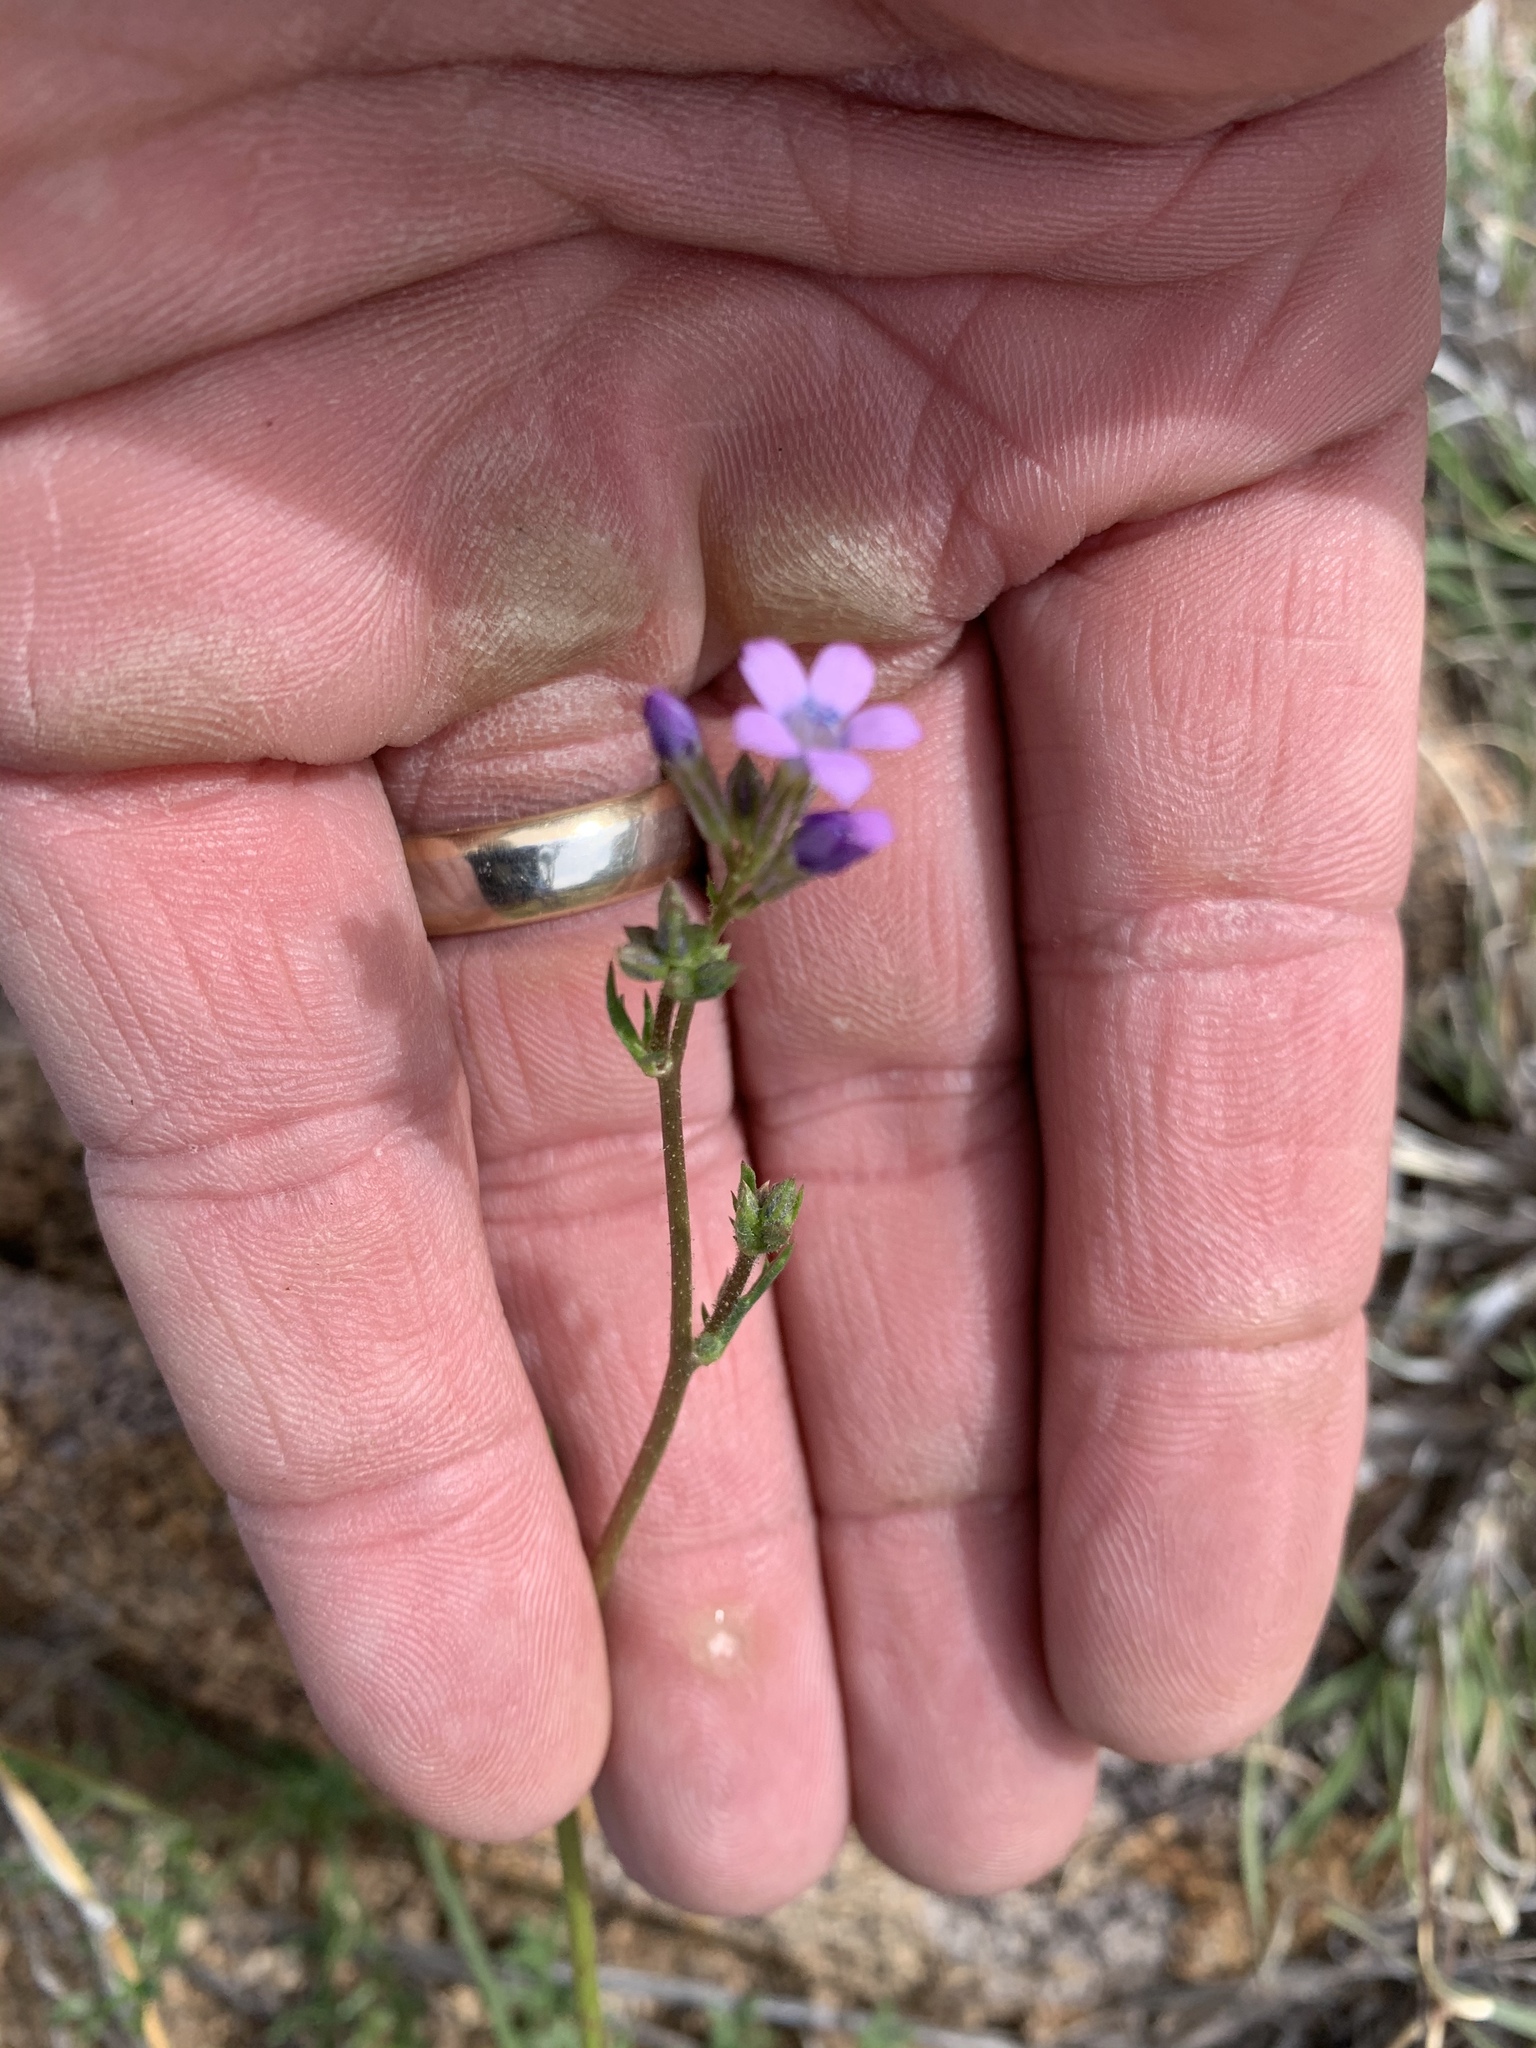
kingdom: Plantae
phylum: Tracheophyta
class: Magnoliopsida
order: Ericales
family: Polemoniaceae
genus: Gilia
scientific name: Gilia mexicana
